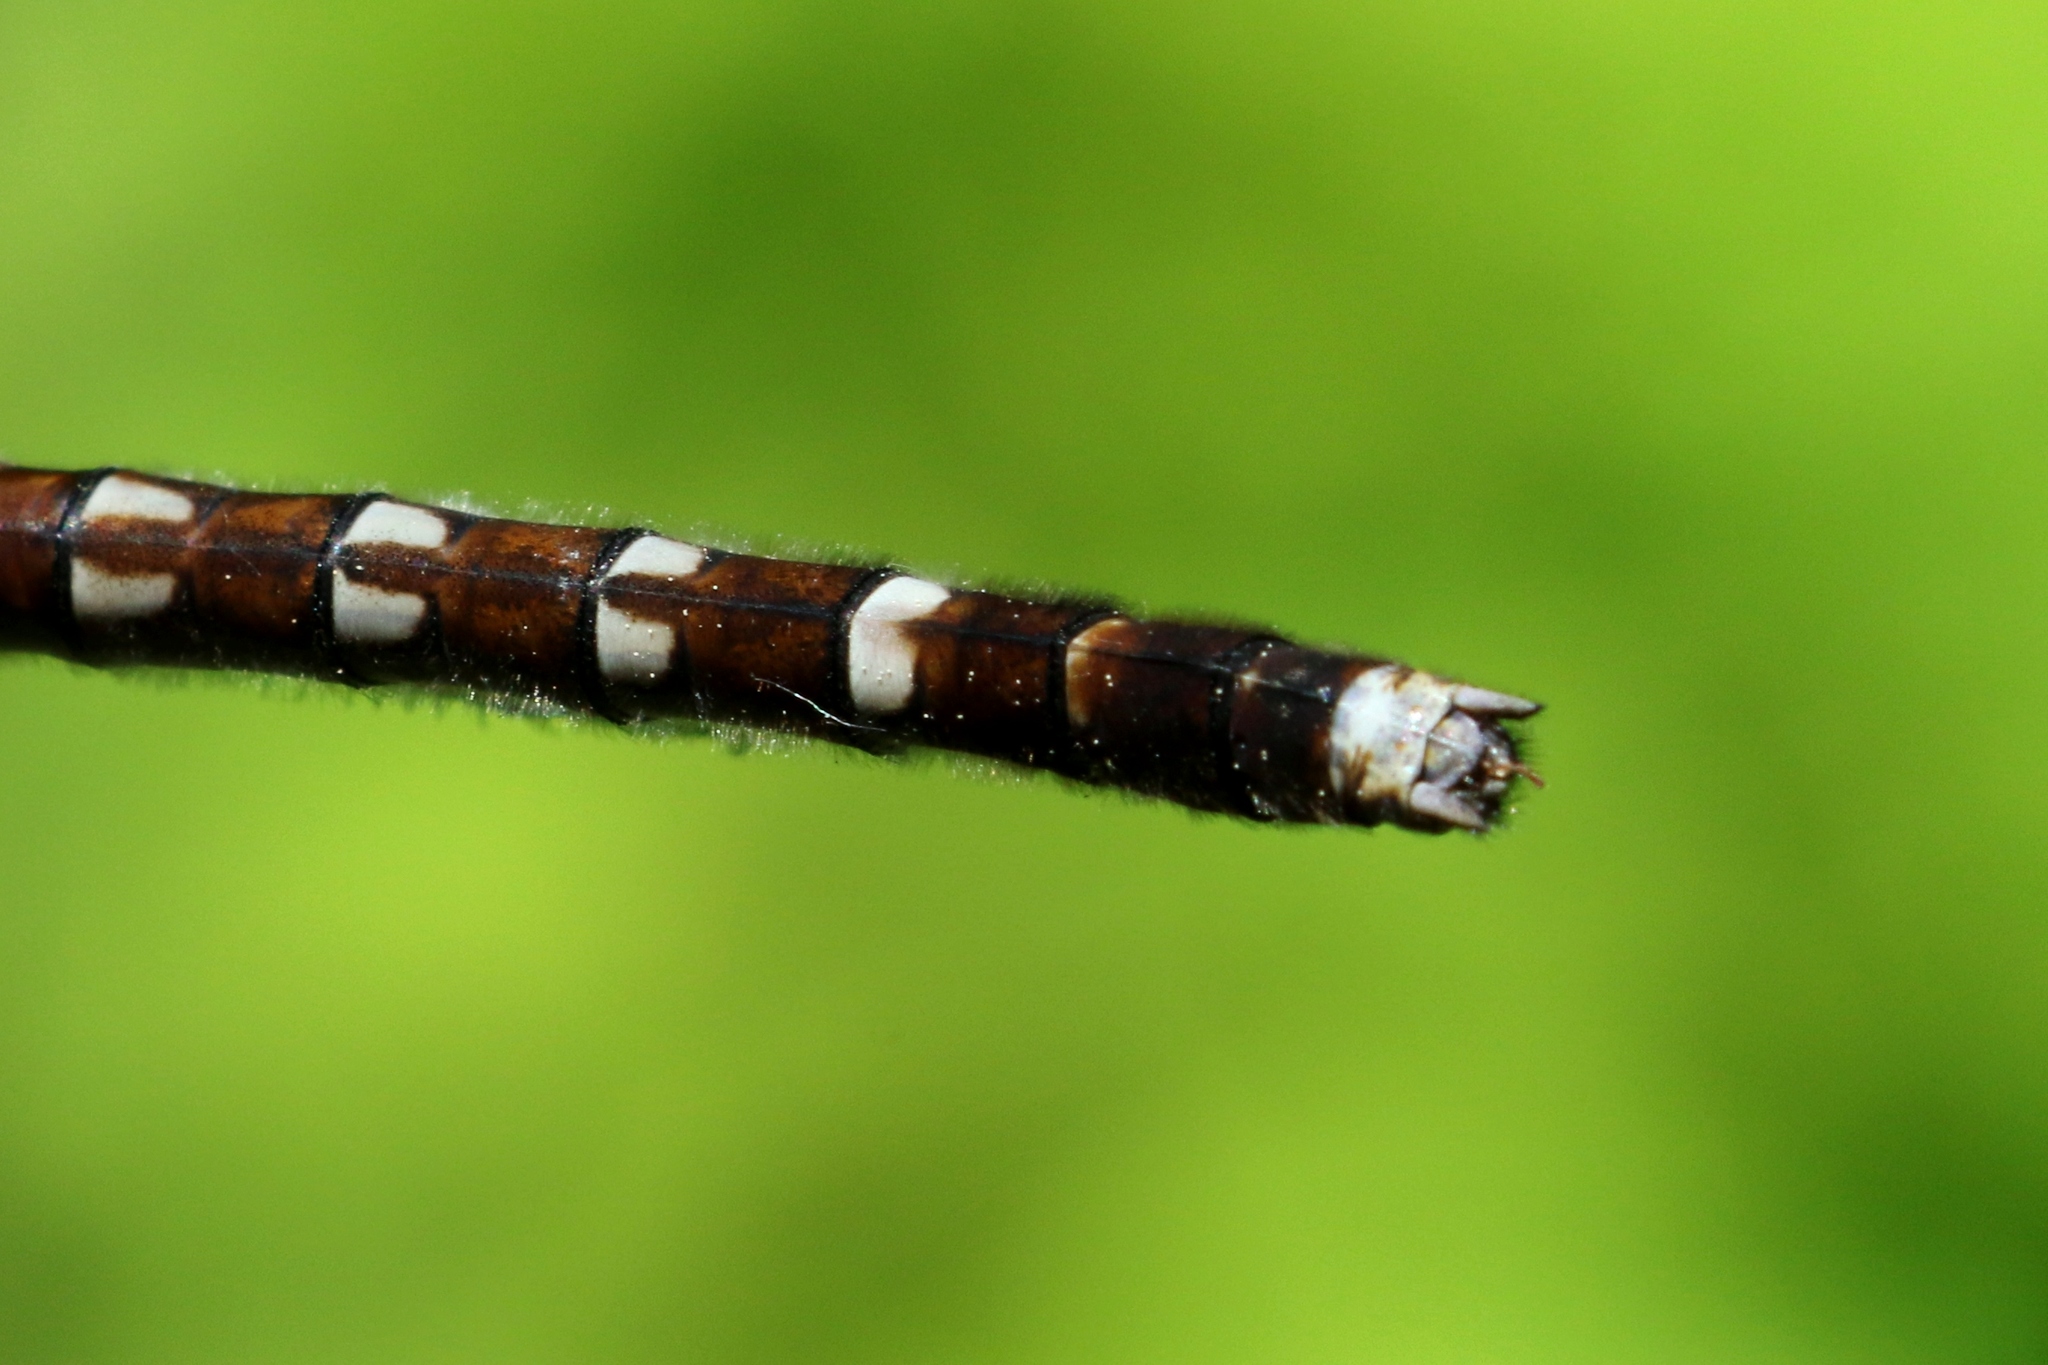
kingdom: Animalia
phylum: Arthropoda
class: Insecta
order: Odonata
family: Macromiidae
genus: Didymops
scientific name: Didymops transversa
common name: Stream cruiser
